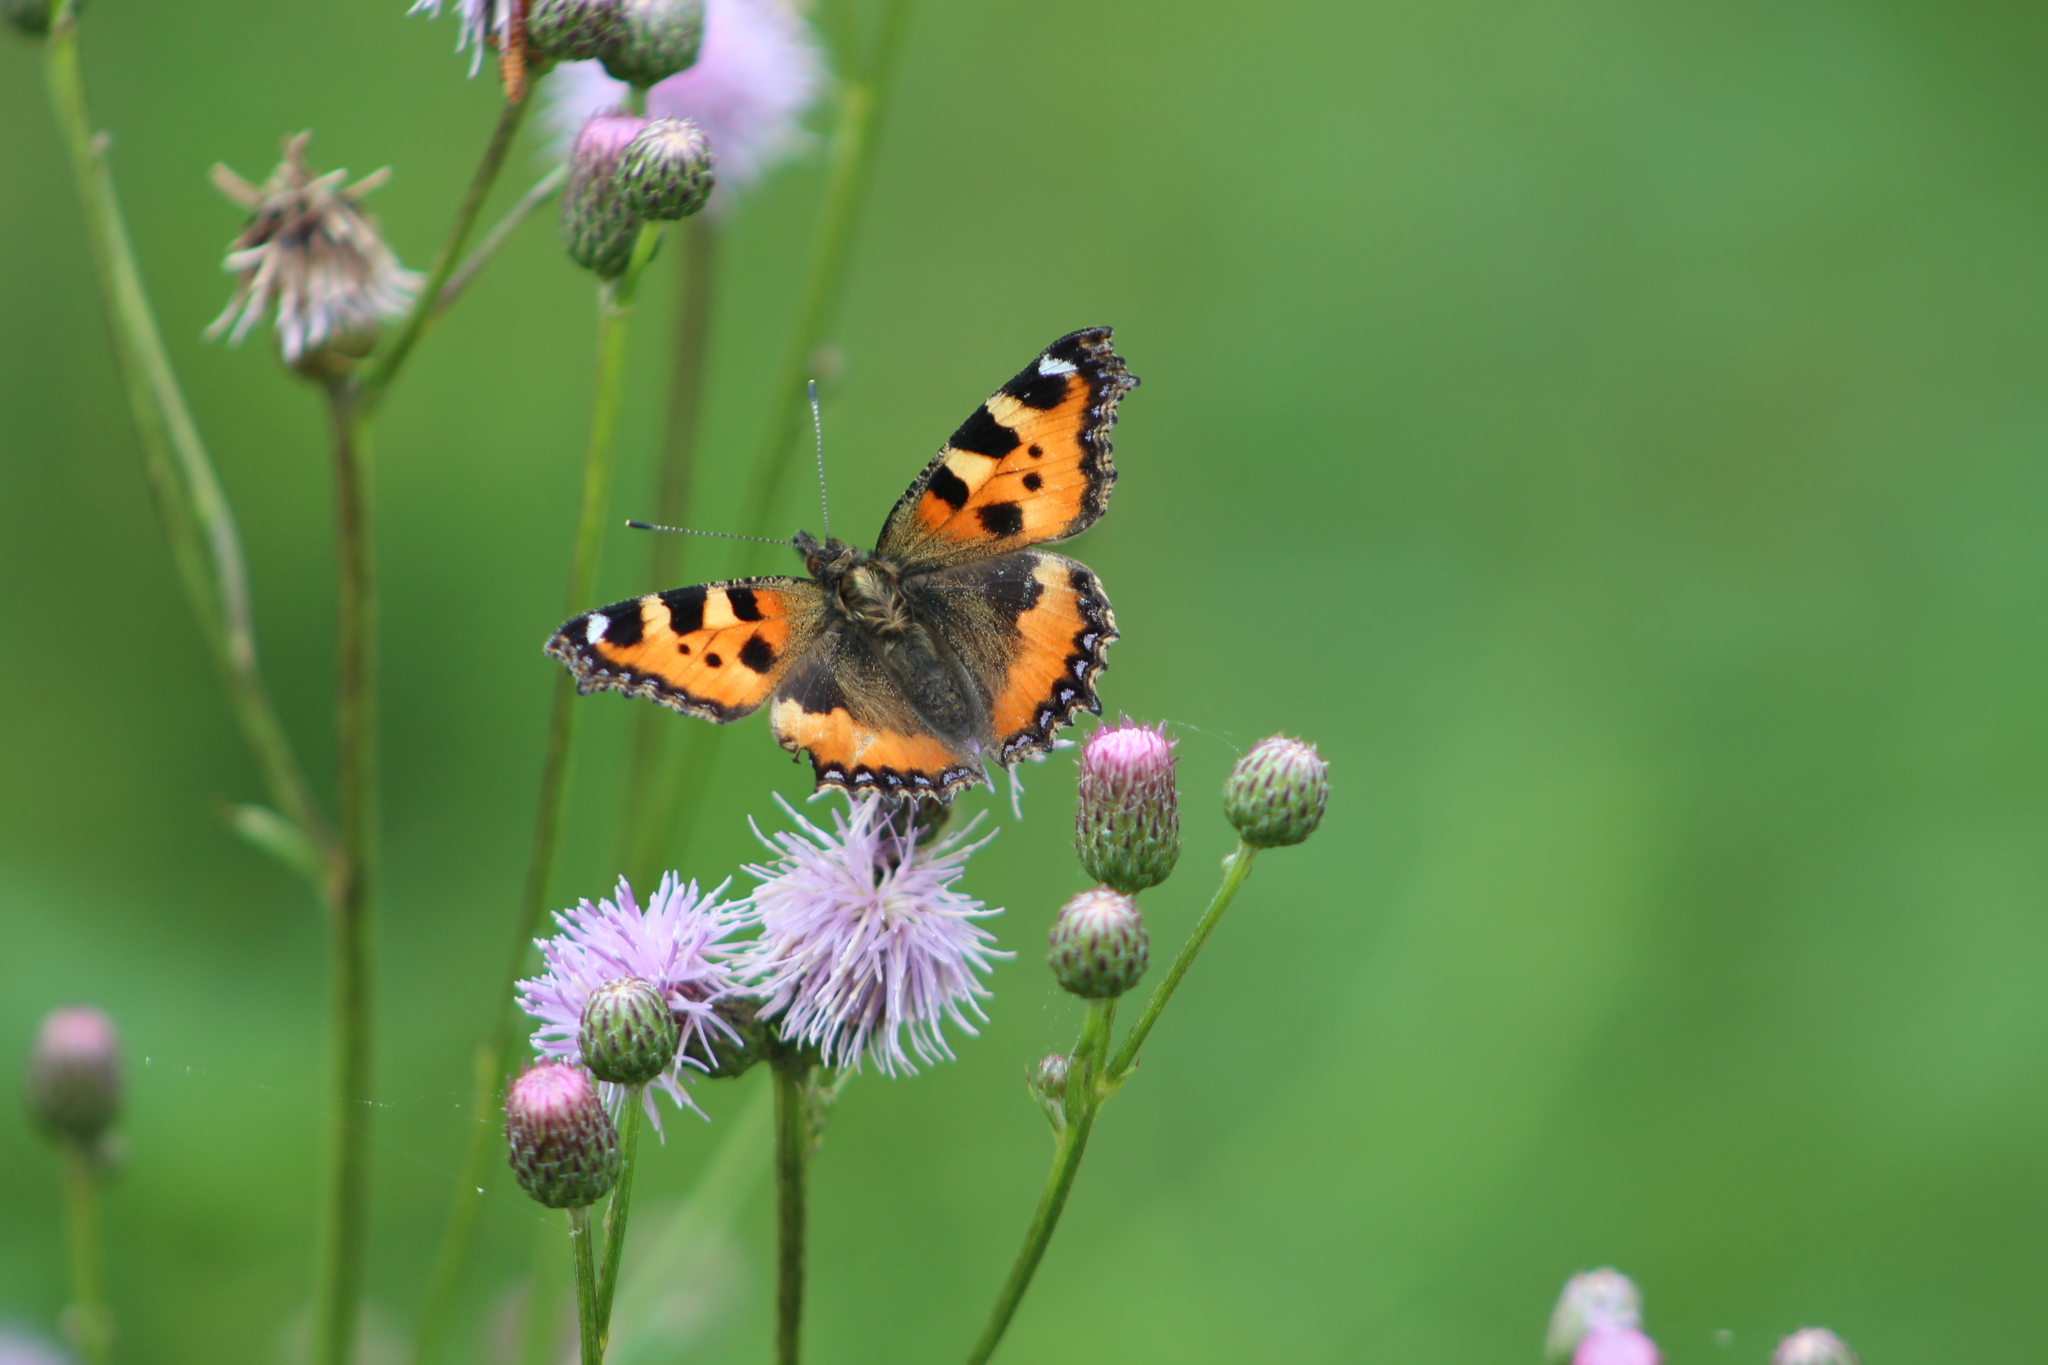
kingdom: Animalia
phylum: Arthropoda
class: Insecta
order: Lepidoptera
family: Nymphalidae
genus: Aglais
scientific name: Aglais urticae
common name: Small tortoiseshell
